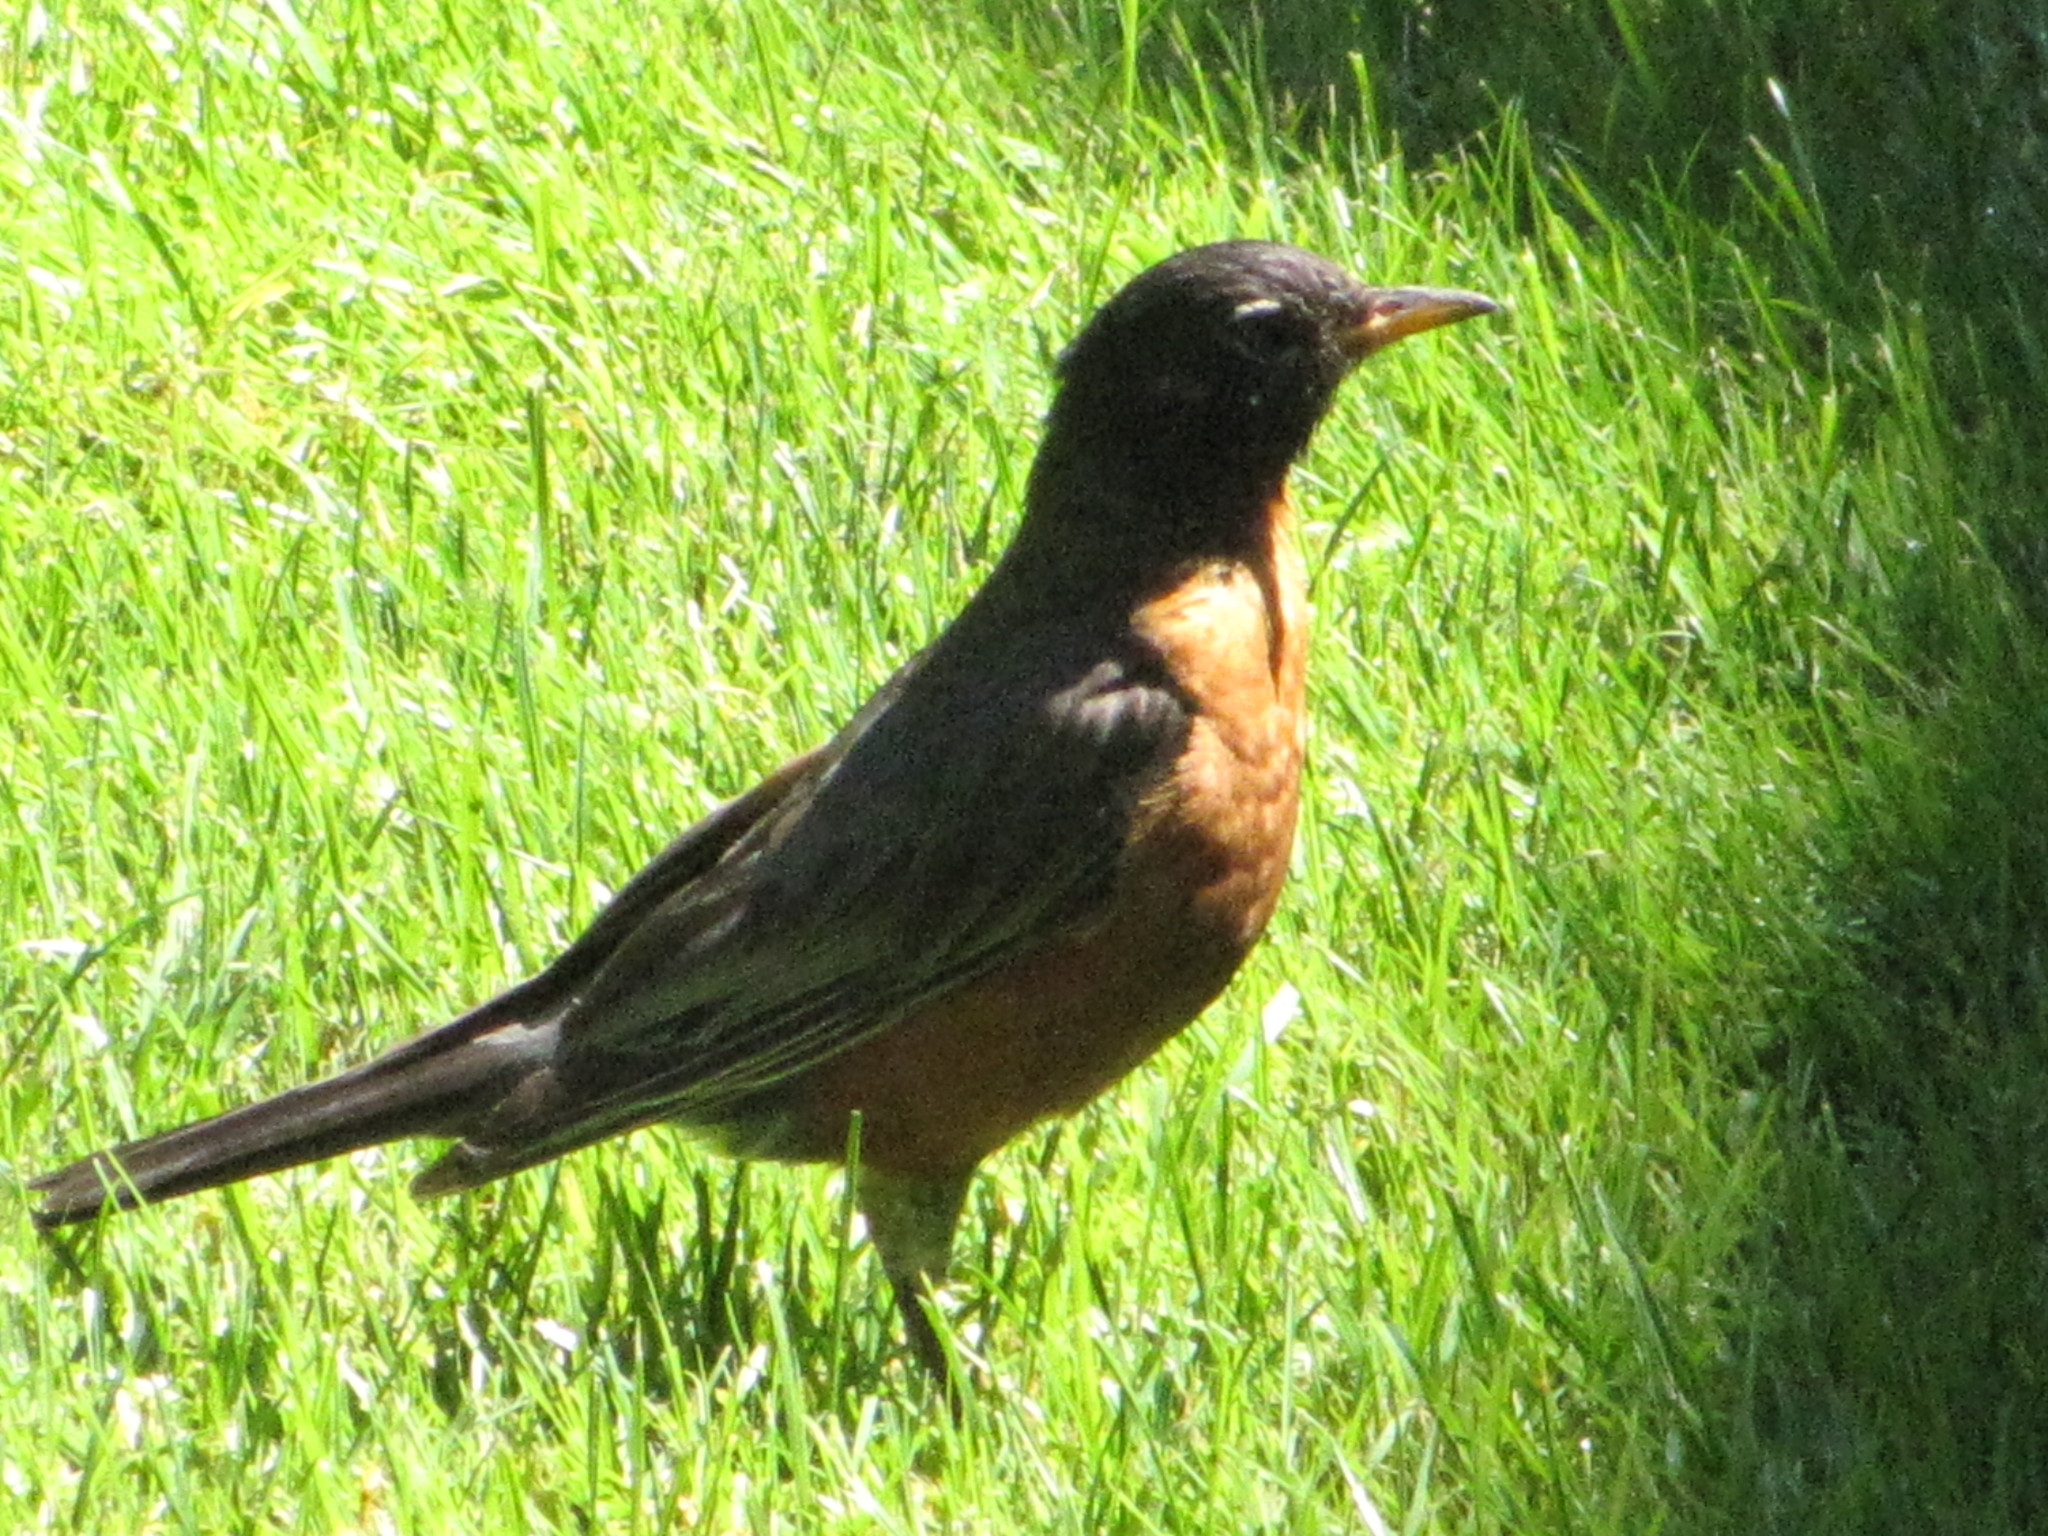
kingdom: Animalia
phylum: Chordata
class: Aves
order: Passeriformes
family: Turdidae
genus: Turdus
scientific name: Turdus migratorius
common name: American robin
